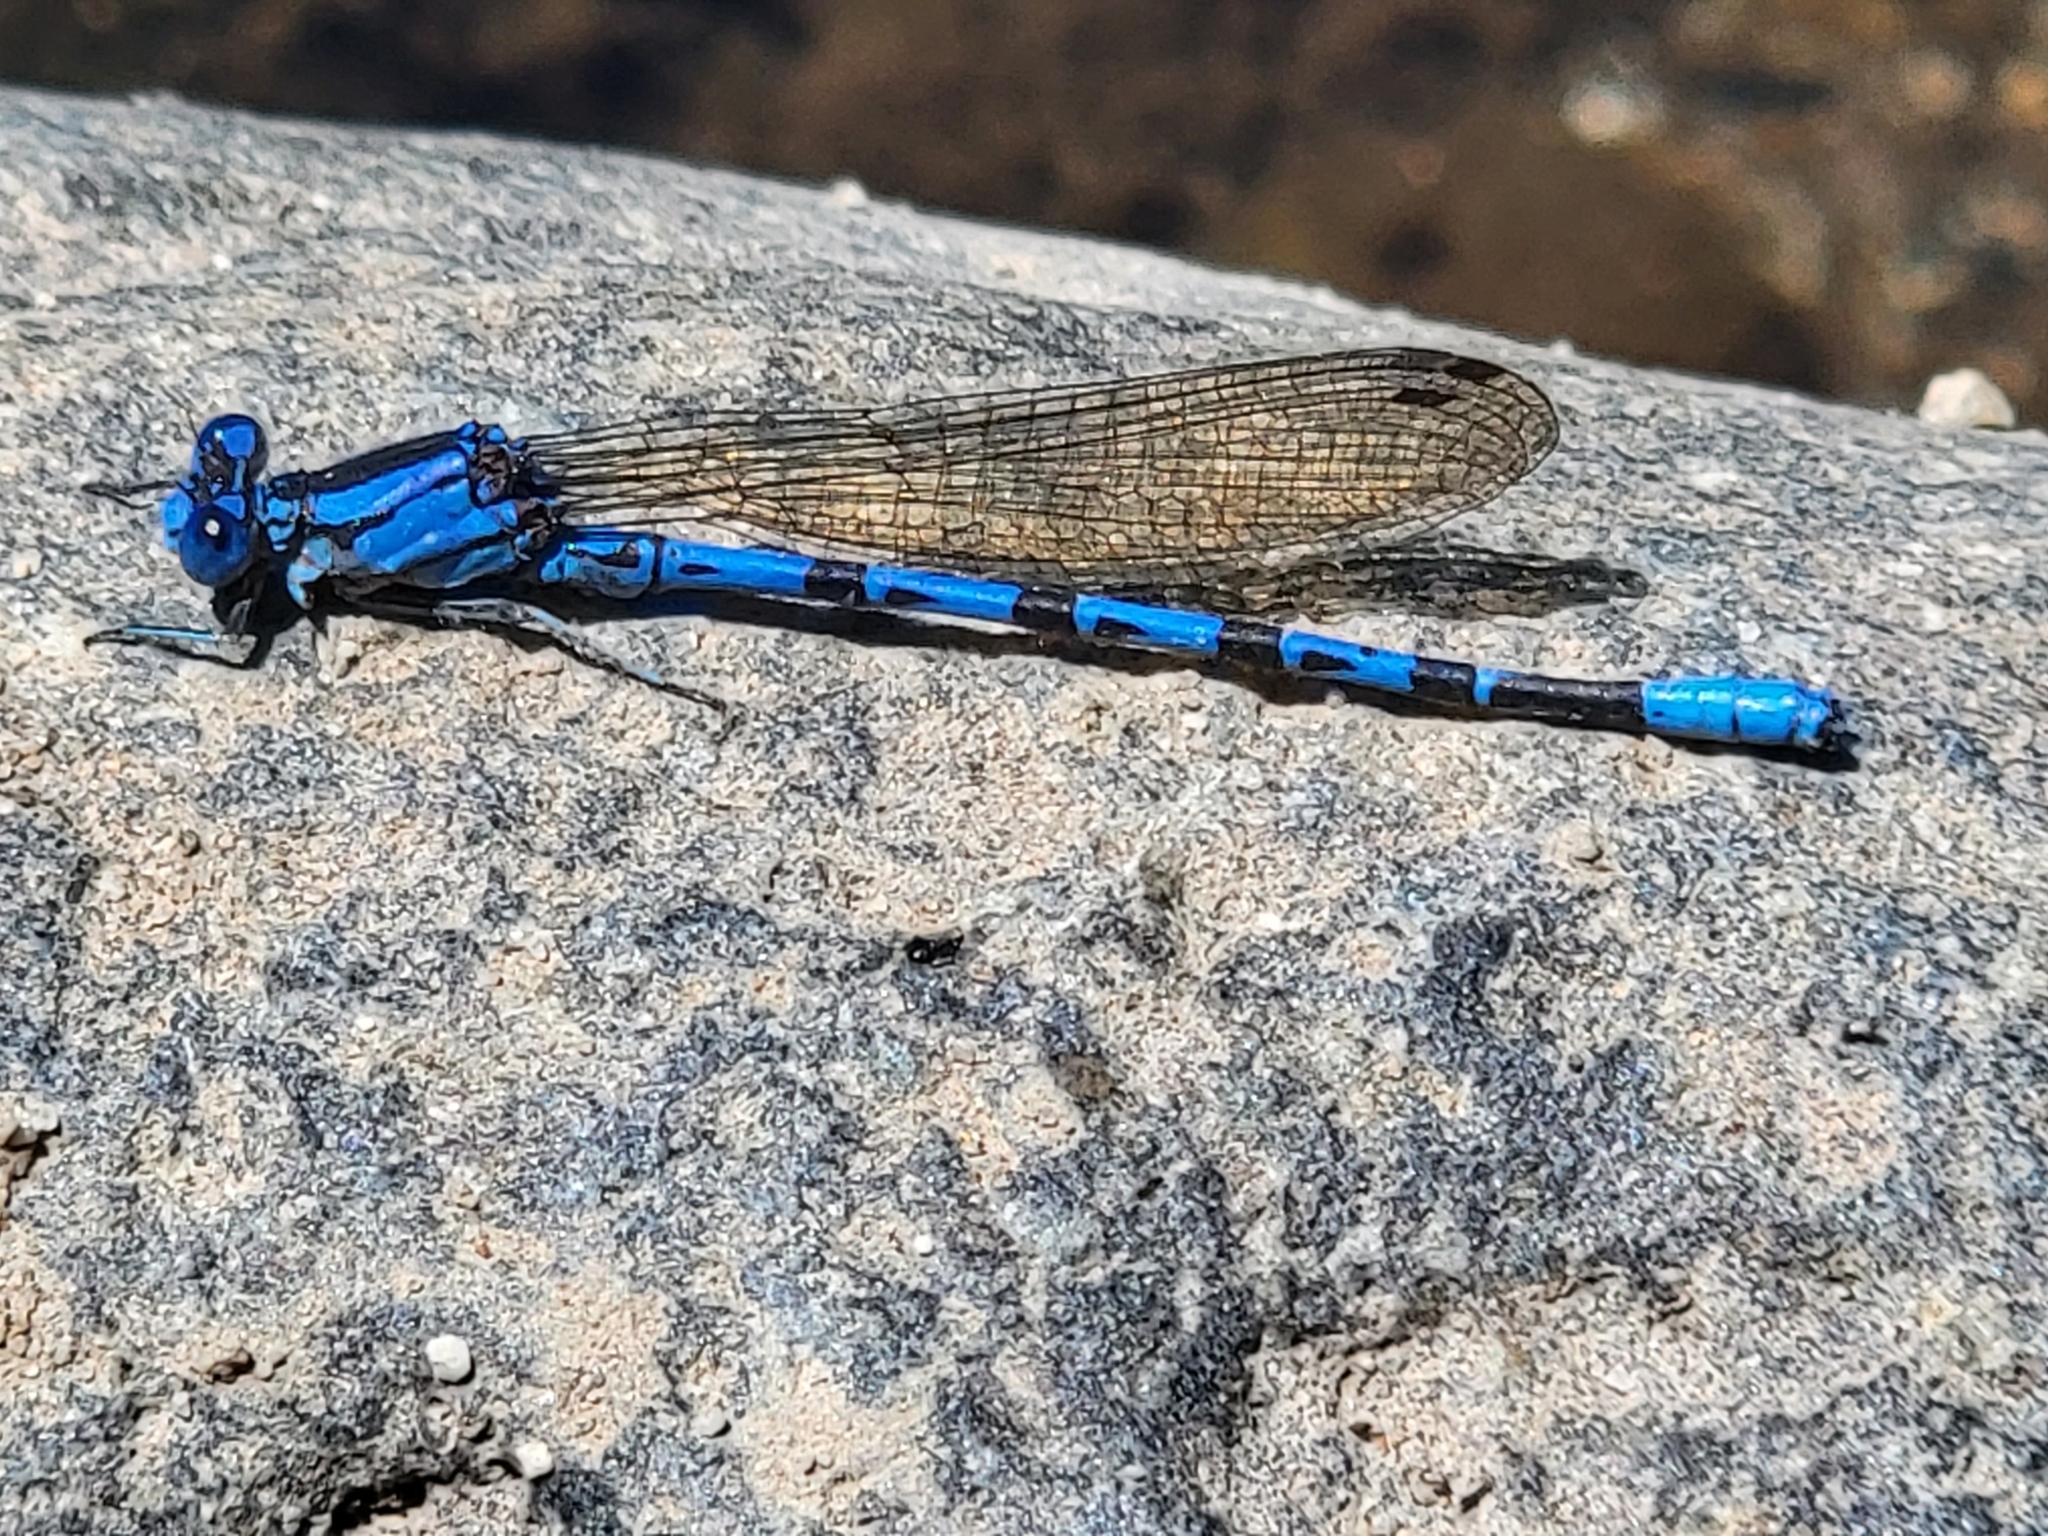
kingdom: Animalia
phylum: Arthropoda
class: Insecta
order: Odonata
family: Coenagrionidae
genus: Argia
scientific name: Argia vivida
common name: Vivid dancer
